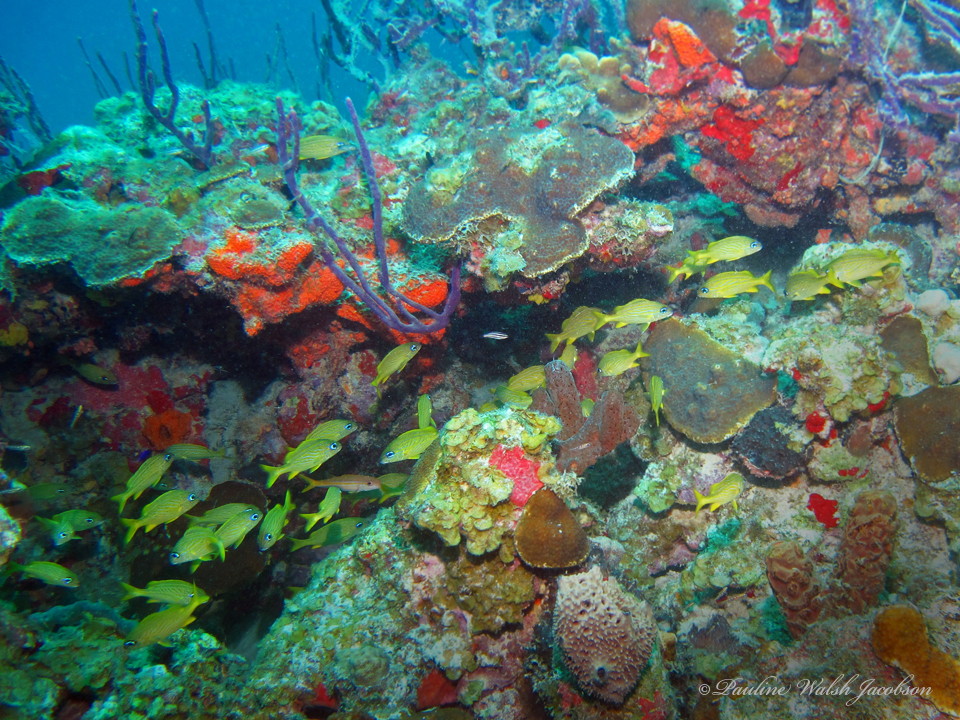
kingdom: Animalia
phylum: Chordata
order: Perciformes
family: Haemulidae
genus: Haemulon
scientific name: Haemulon flavolineatum
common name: French grunt
